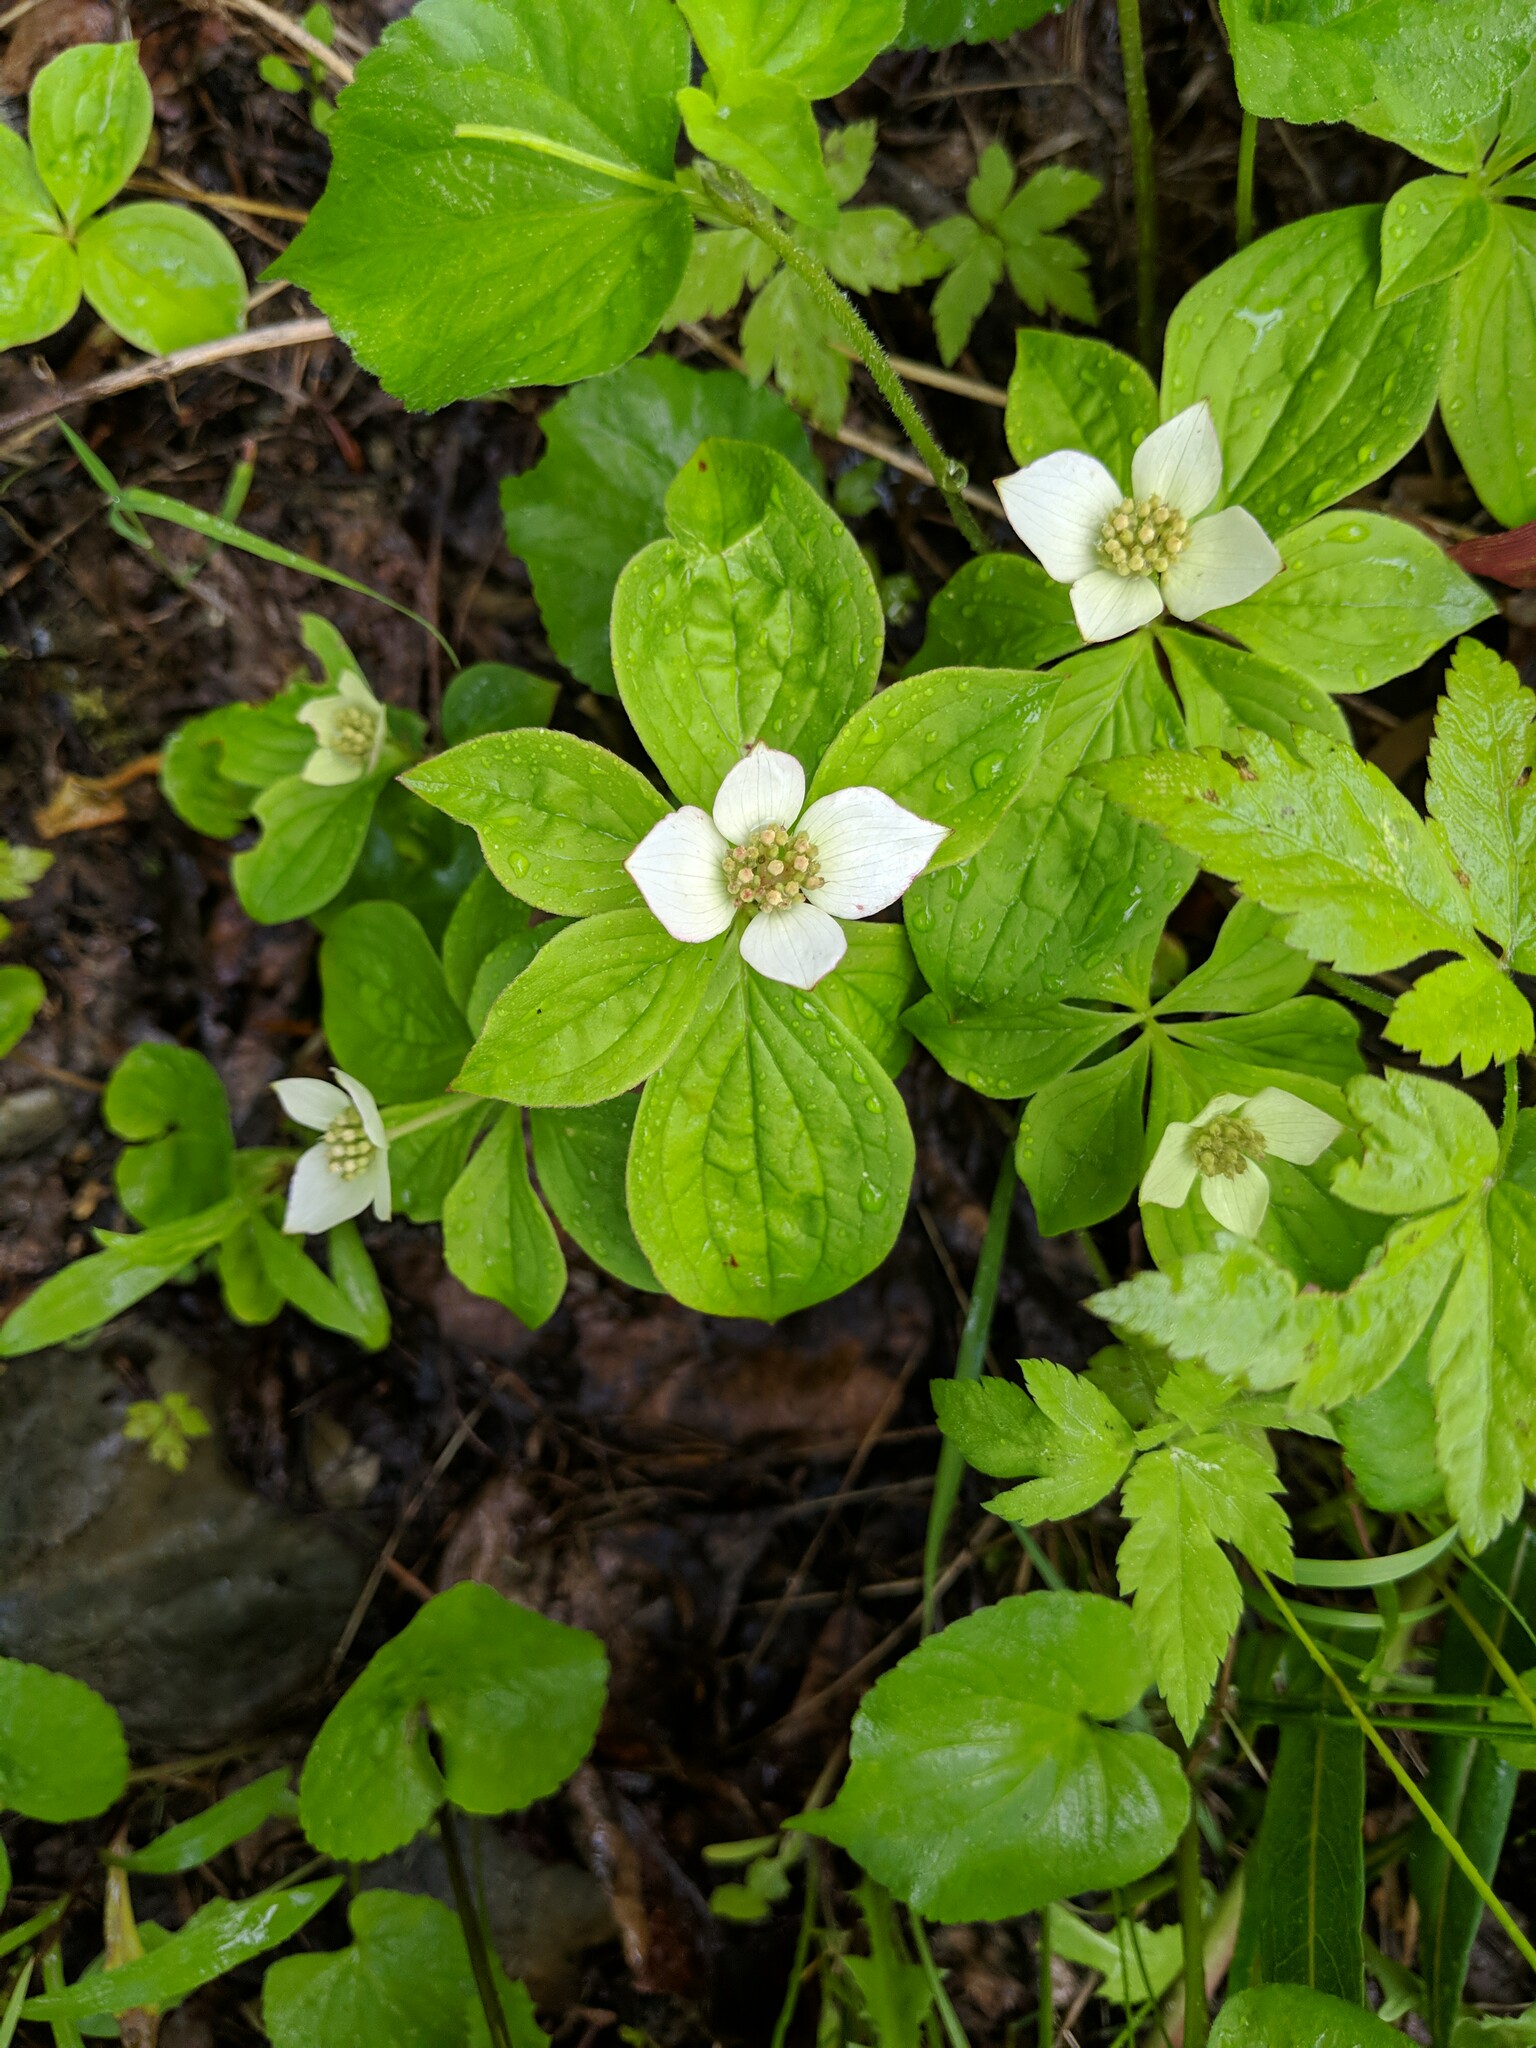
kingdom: Plantae
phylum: Tracheophyta
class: Magnoliopsida
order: Cornales
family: Cornaceae
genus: Cornus
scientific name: Cornus canadensis
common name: Creeping dogwood
